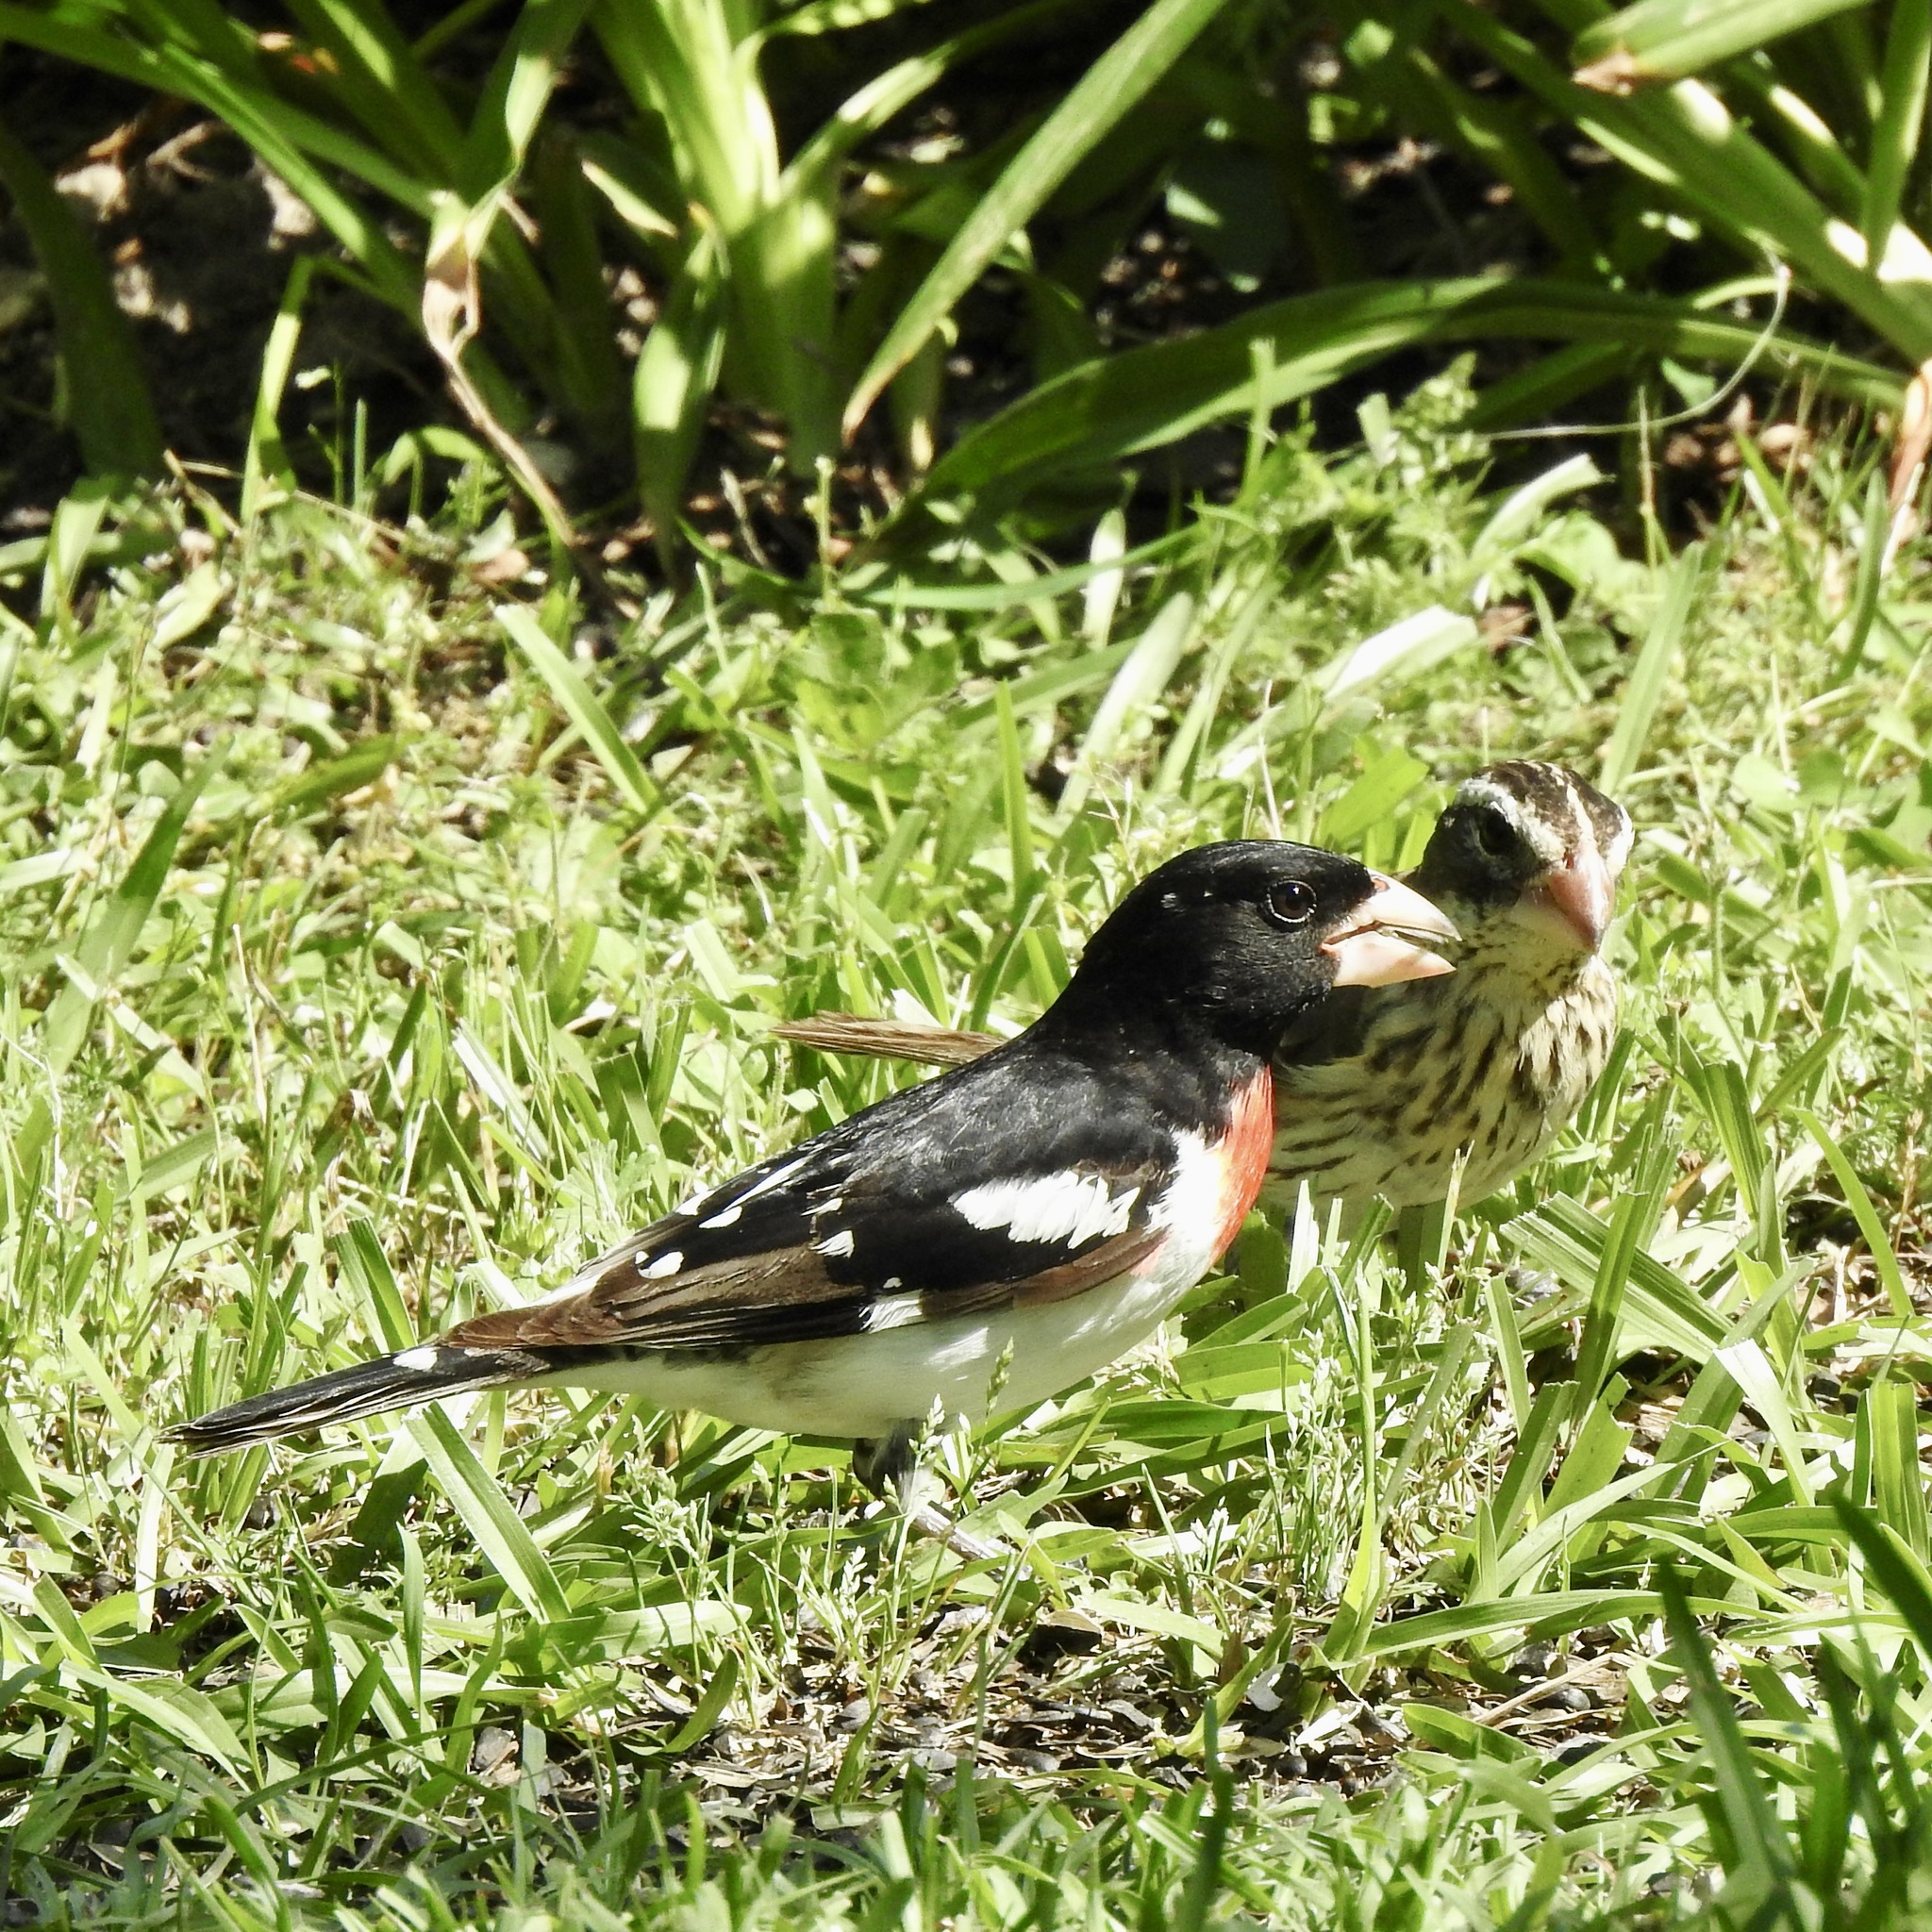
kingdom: Animalia
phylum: Chordata
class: Aves
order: Passeriformes
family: Cardinalidae
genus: Pheucticus
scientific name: Pheucticus ludovicianus
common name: Rose-breasted grosbeak
